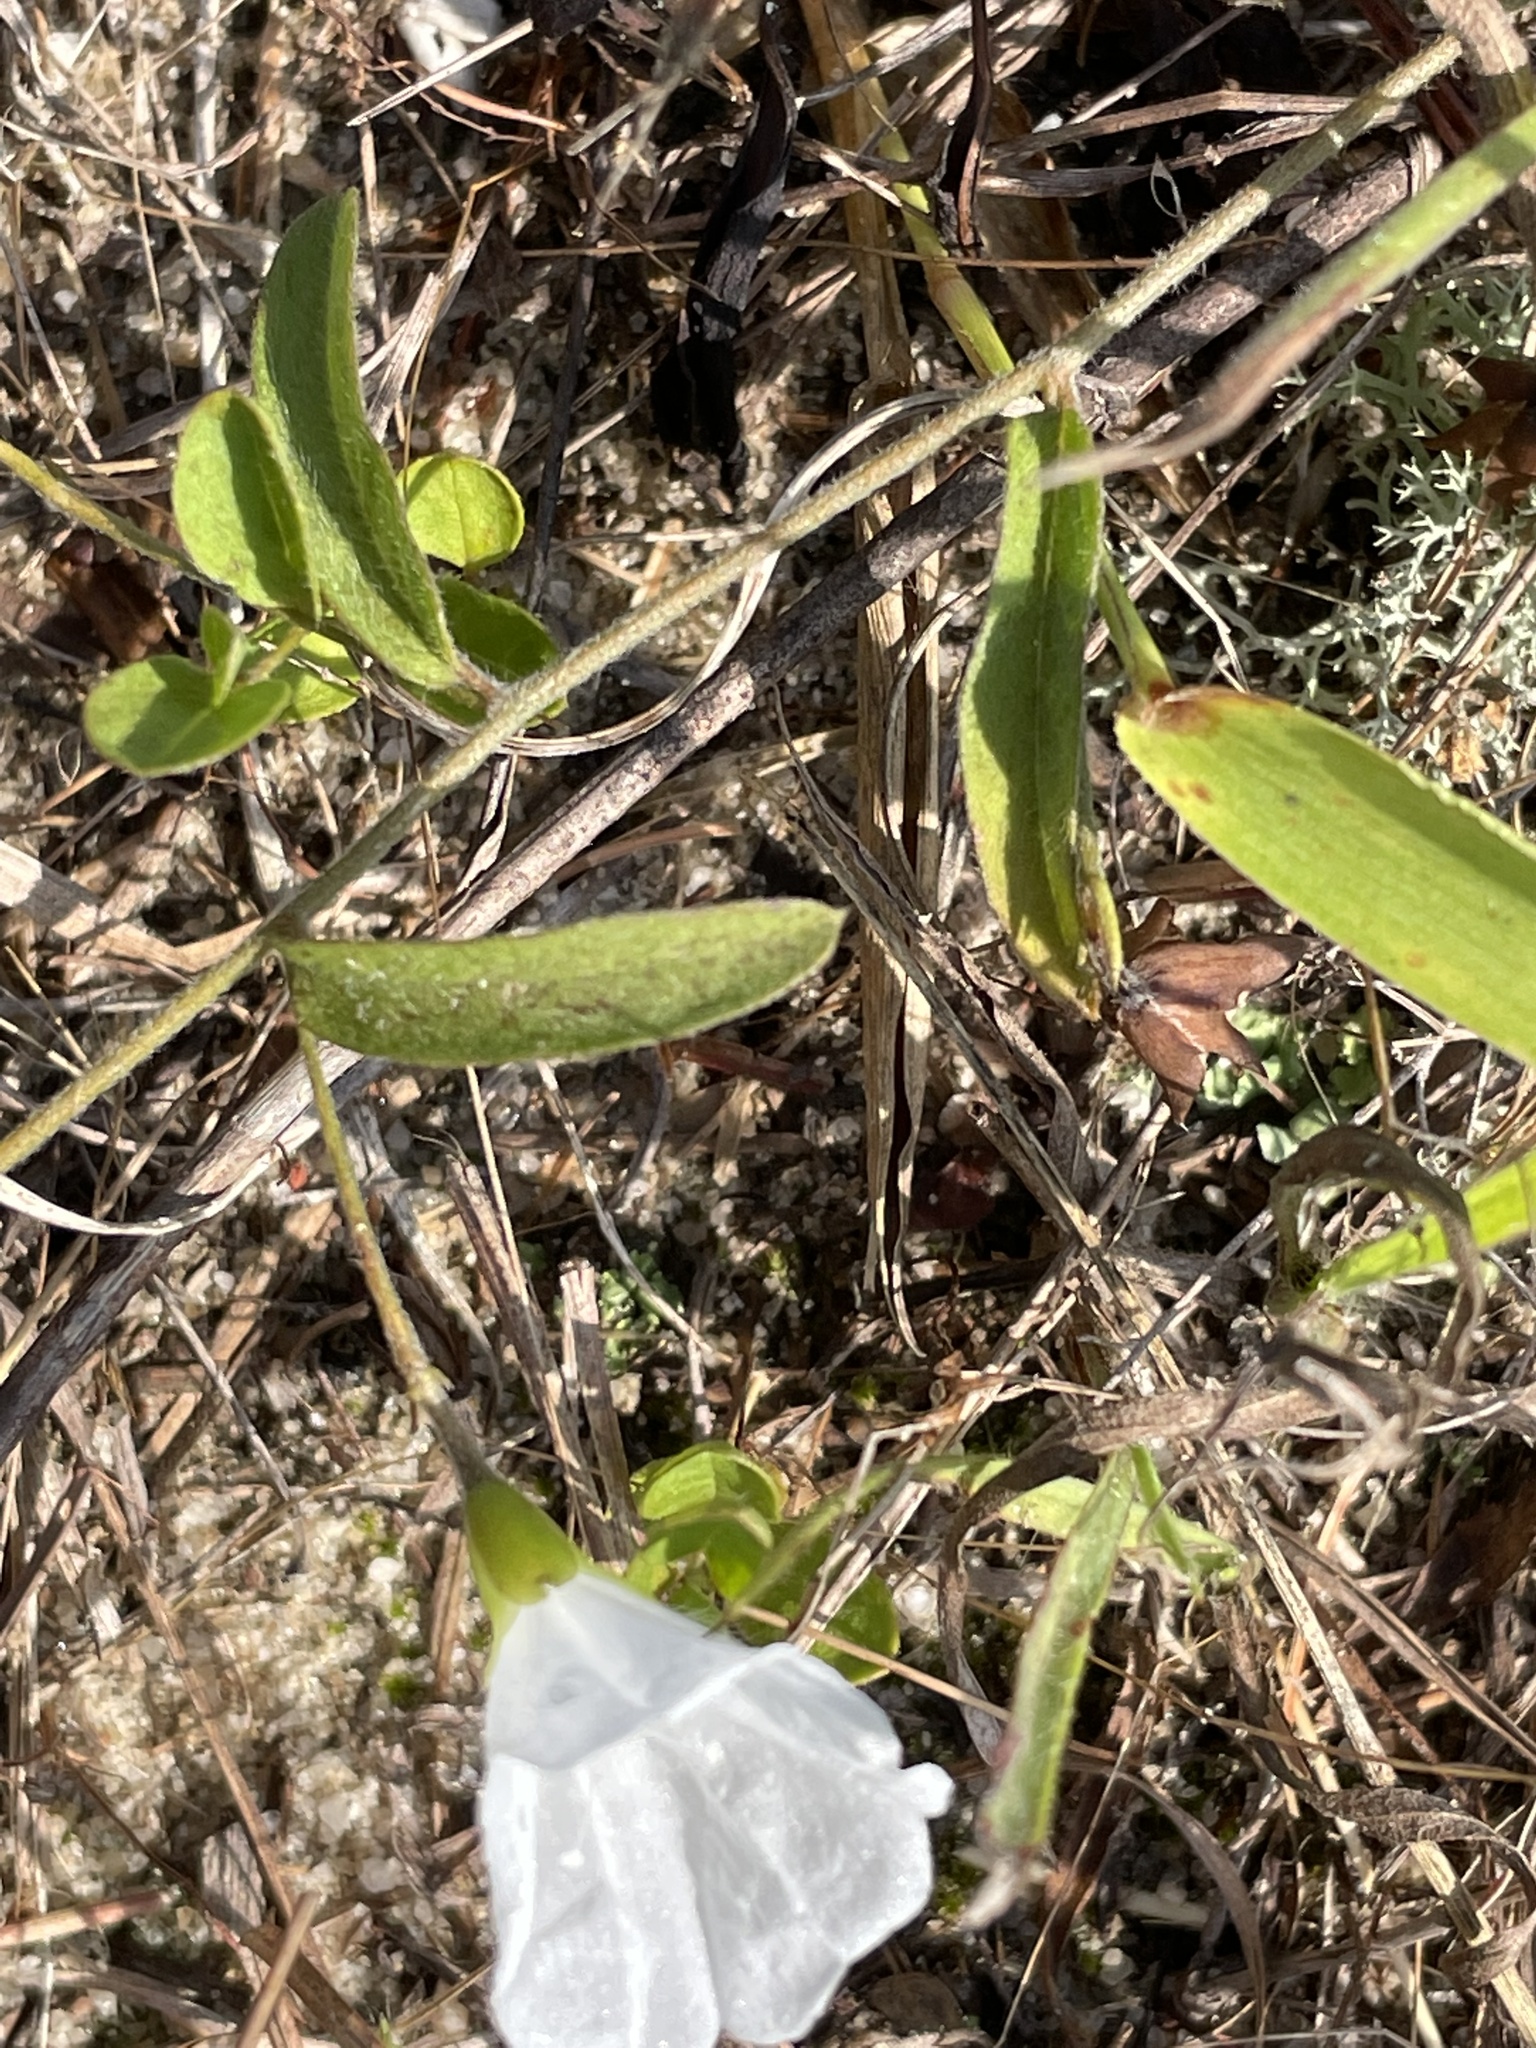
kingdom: Plantae
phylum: Tracheophyta
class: Magnoliopsida
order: Solanales
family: Convolvulaceae
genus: Stylisma
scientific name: Stylisma patens
